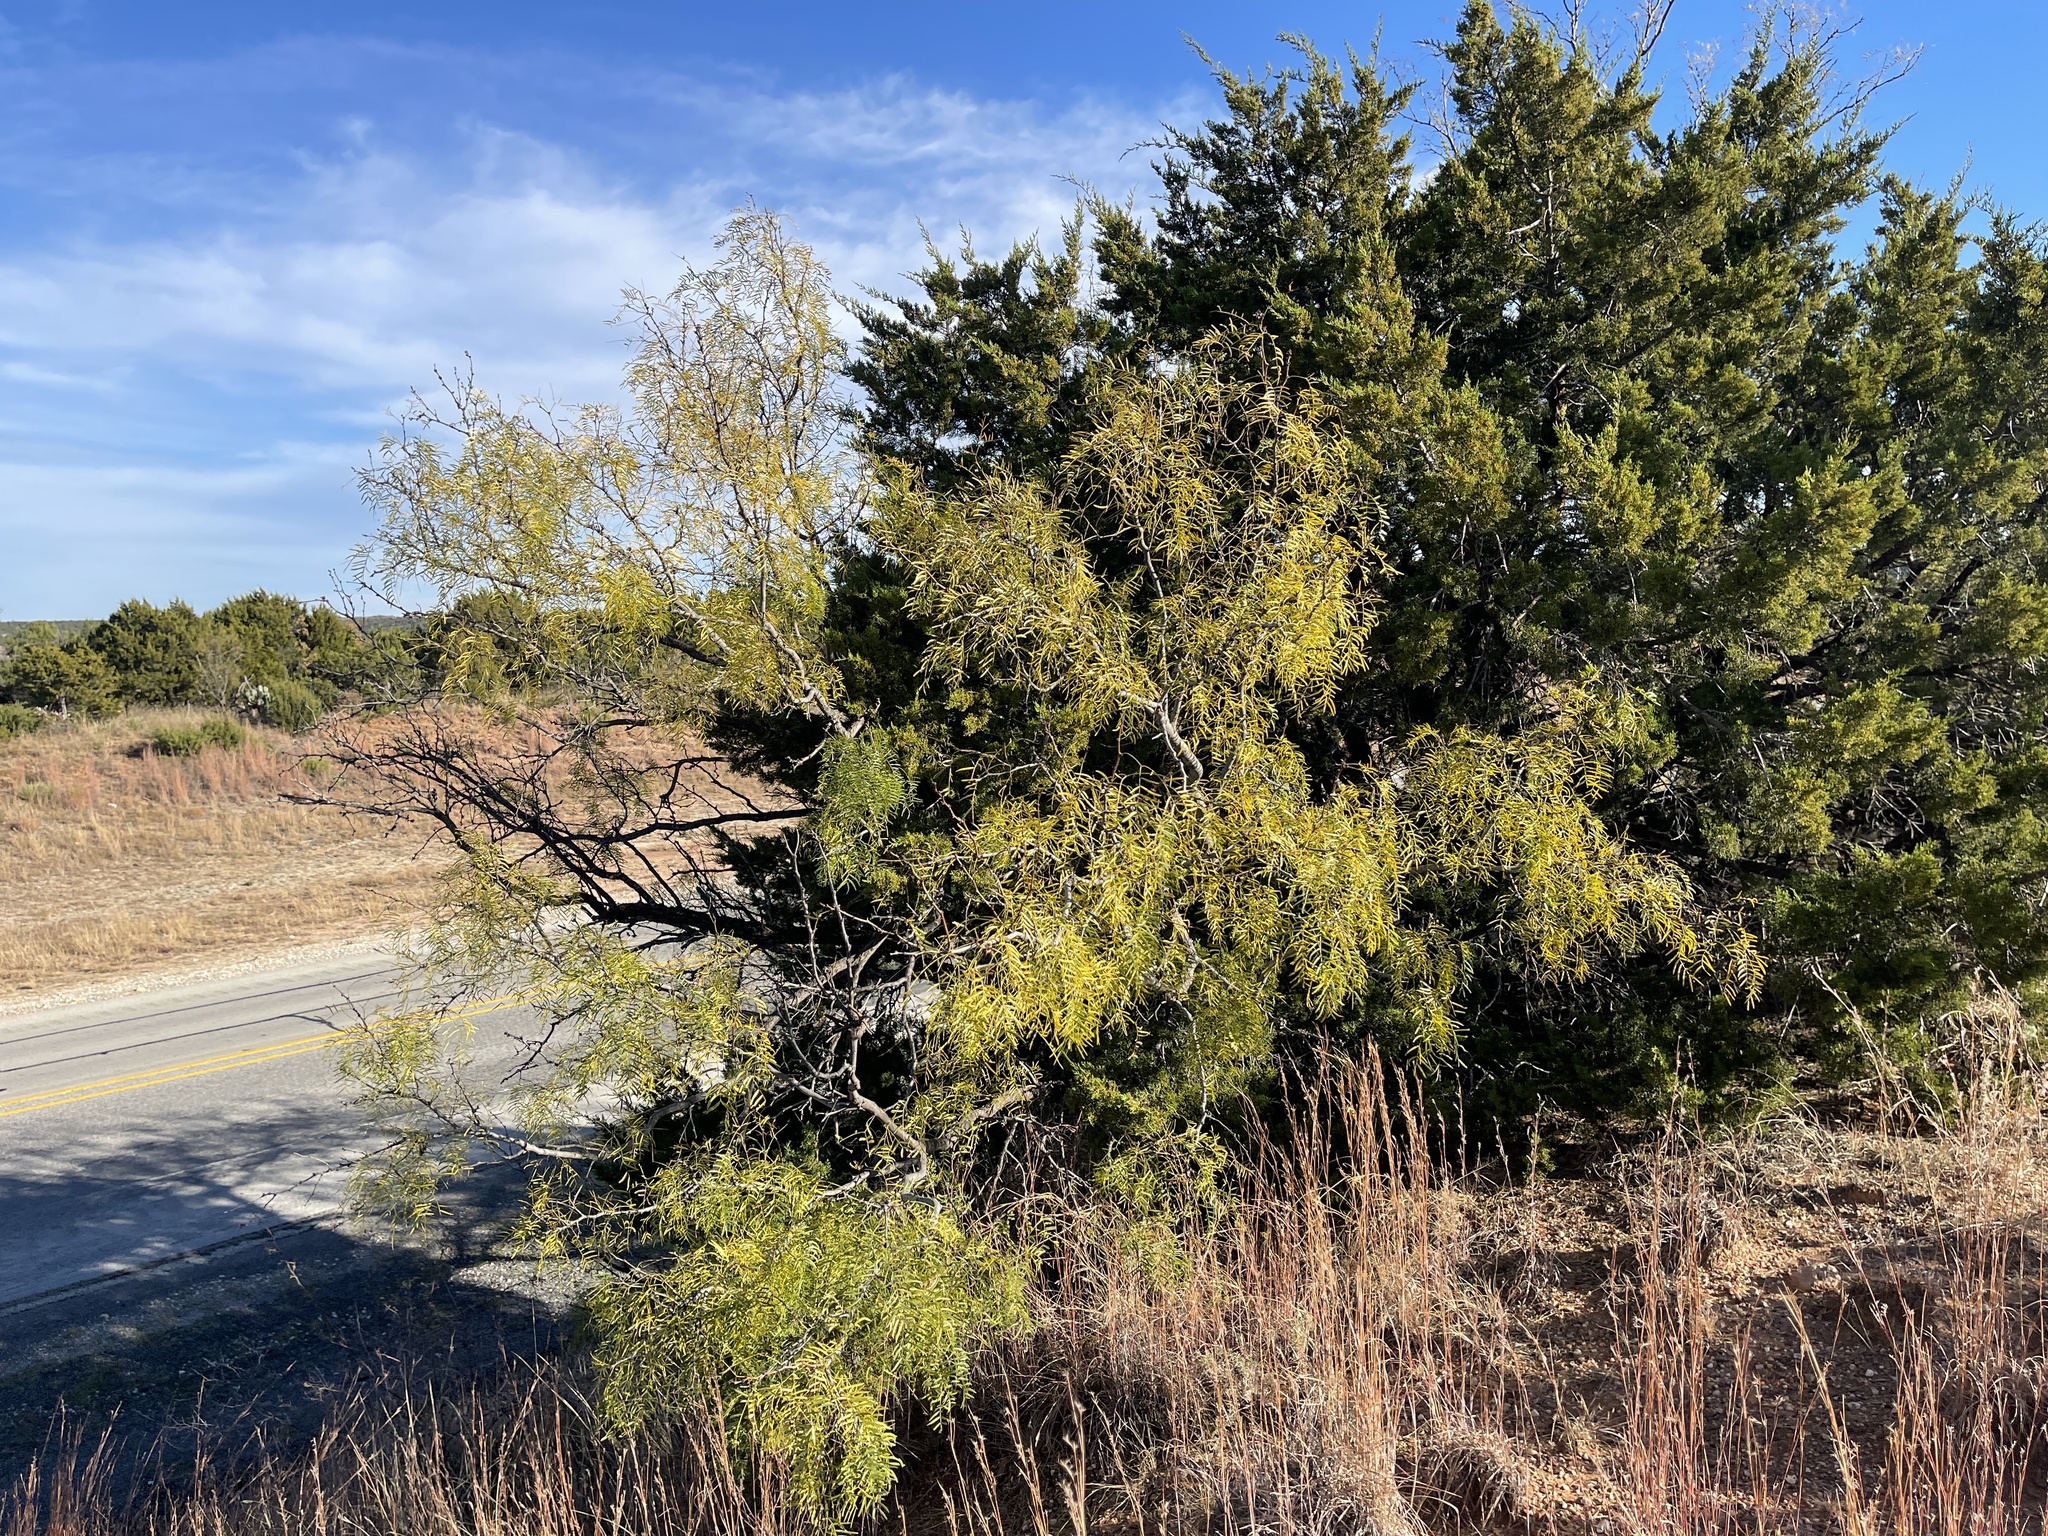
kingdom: Plantae
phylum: Tracheophyta
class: Magnoliopsida
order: Fabales
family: Fabaceae
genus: Prosopis
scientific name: Prosopis glandulosa
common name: Honey mesquite
